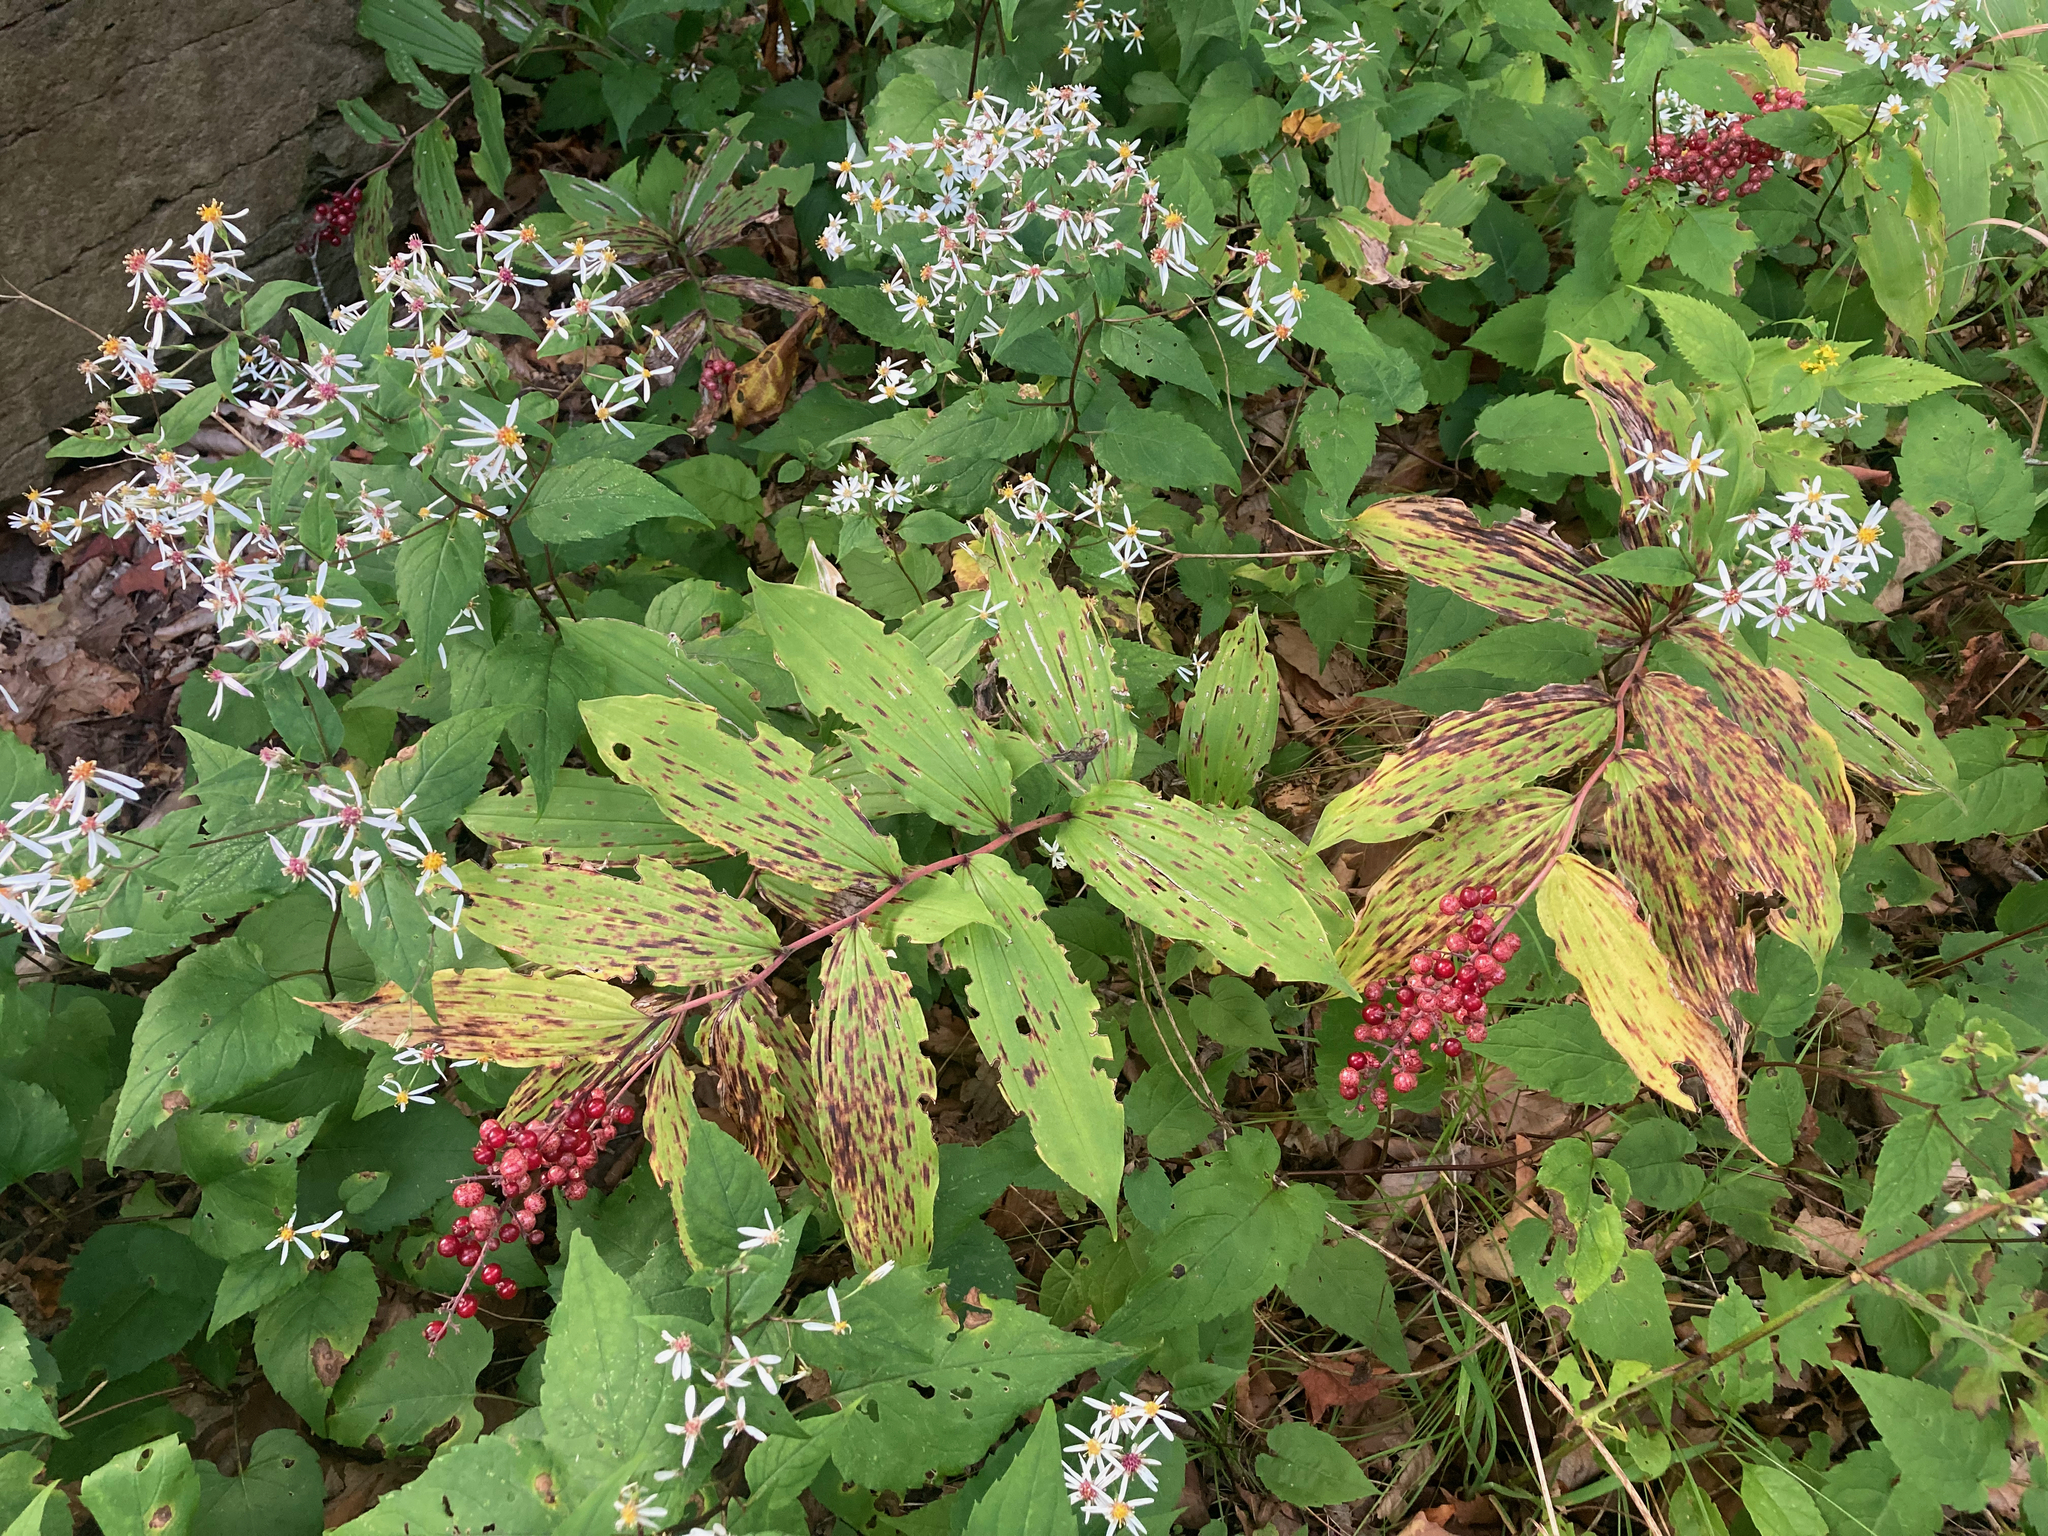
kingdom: Plantae
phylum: Tracheophyta
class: Liliopsida
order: Asparagales
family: Asparagaceae
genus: Maianthemum
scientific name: Maianthemum racemosum
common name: False spikenard
